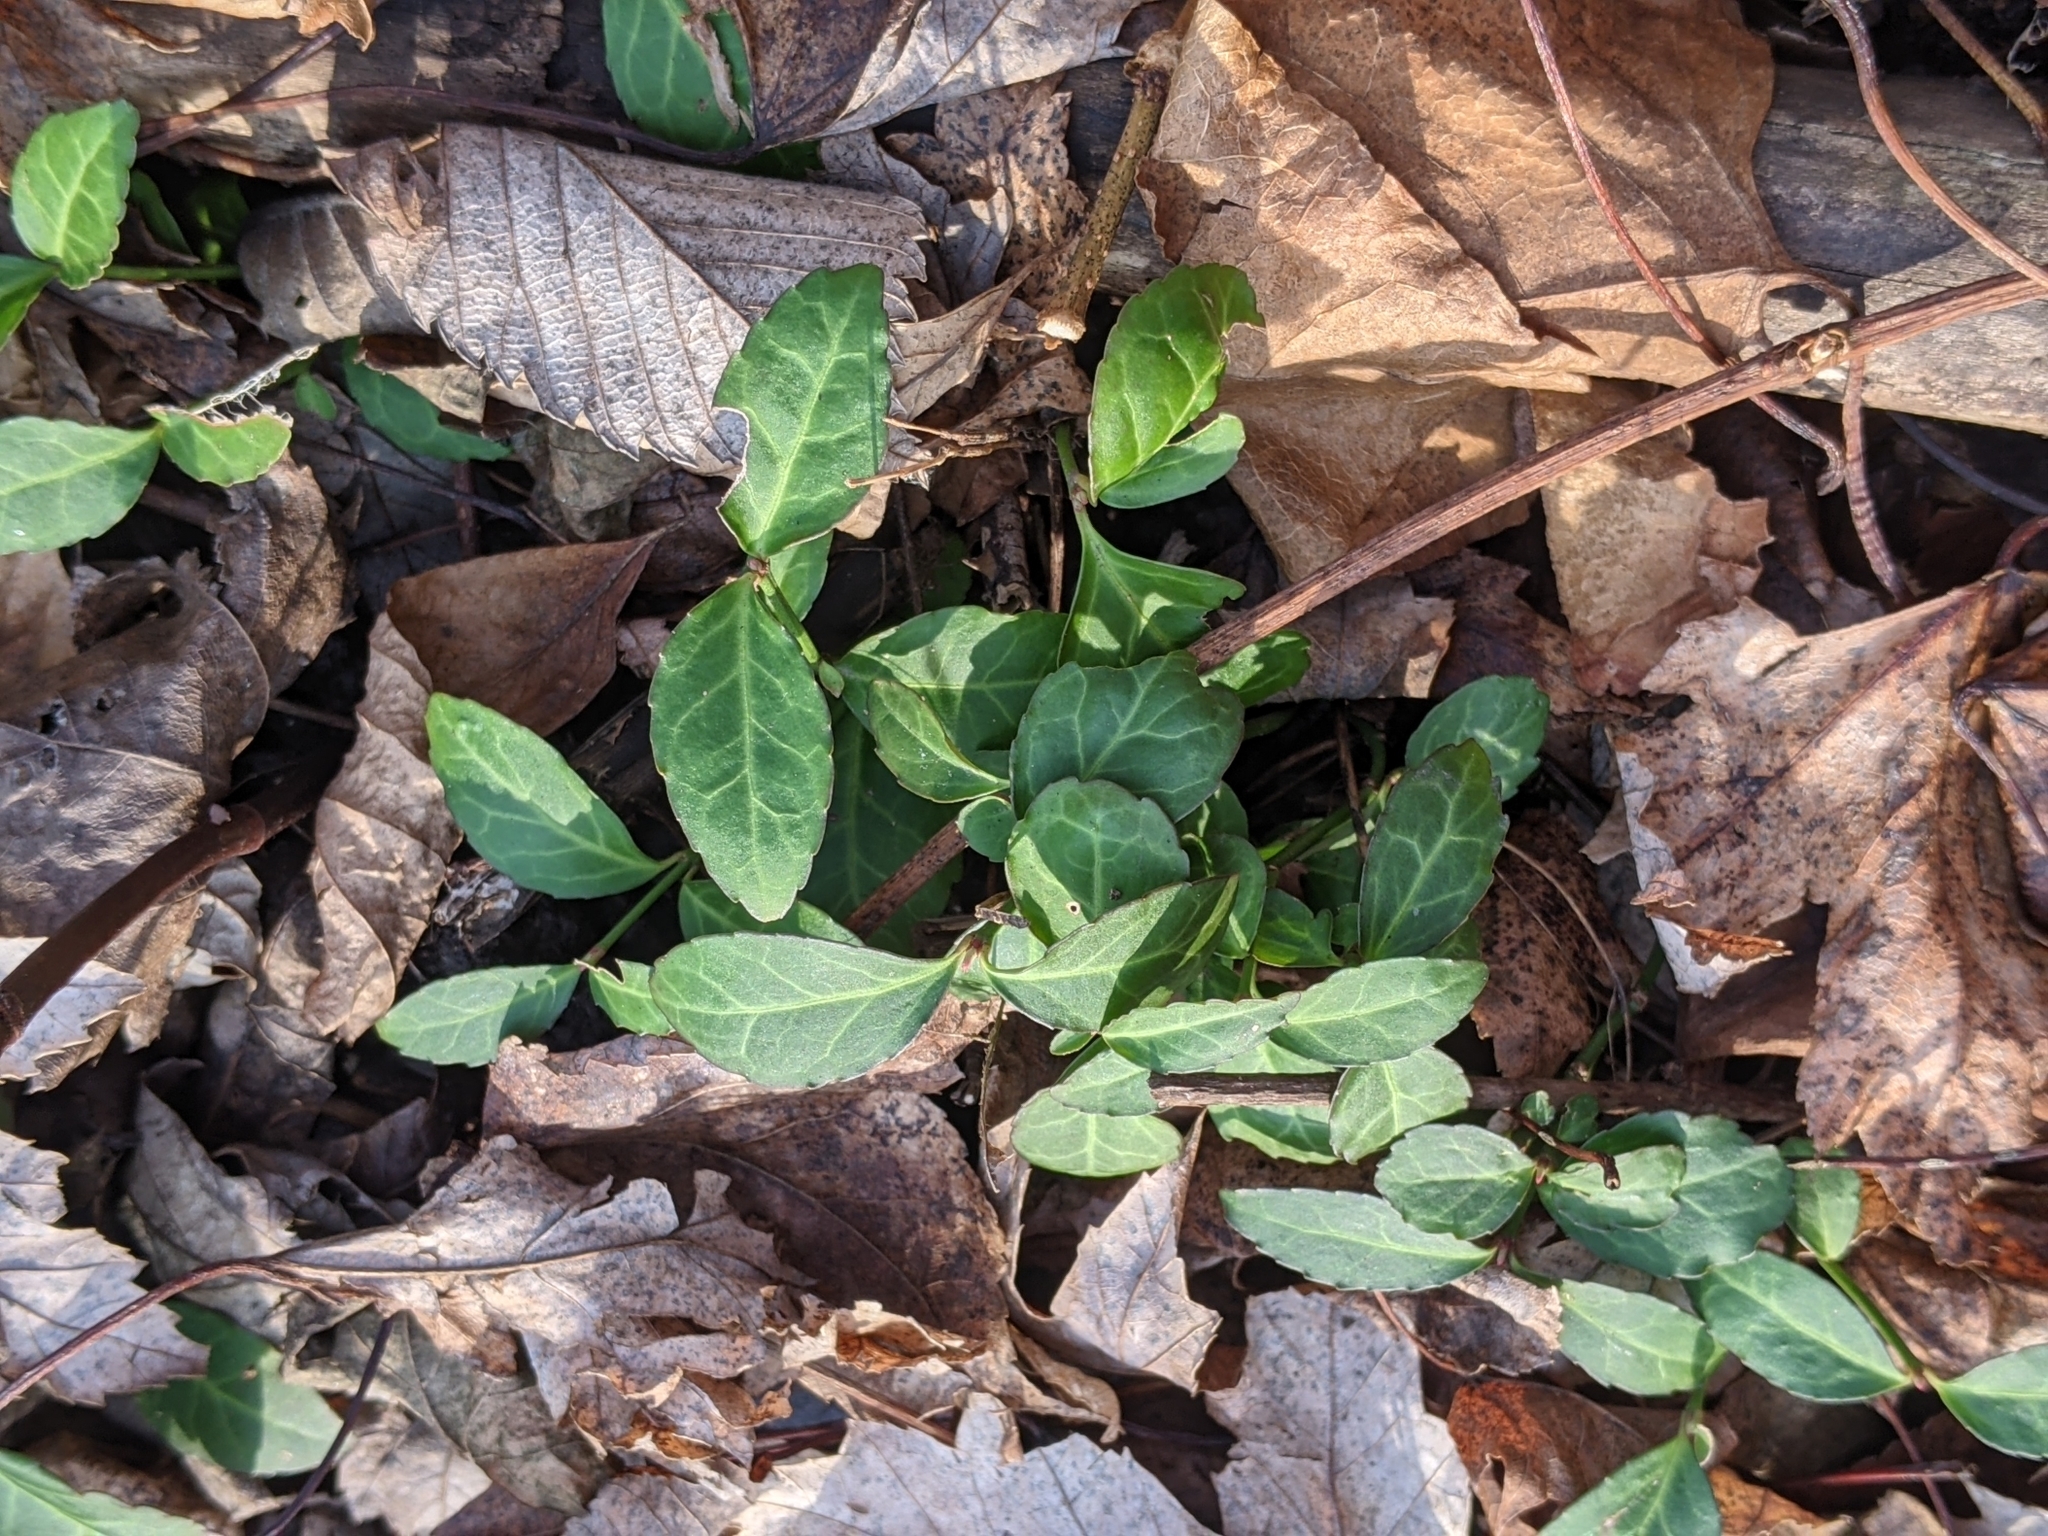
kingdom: Plantae
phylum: Tracheophyta
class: Magnoliopsida
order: Celastrales
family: Celastraceae
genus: Euonymus
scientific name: Euonymus fortunei
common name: Climbing euonymus
